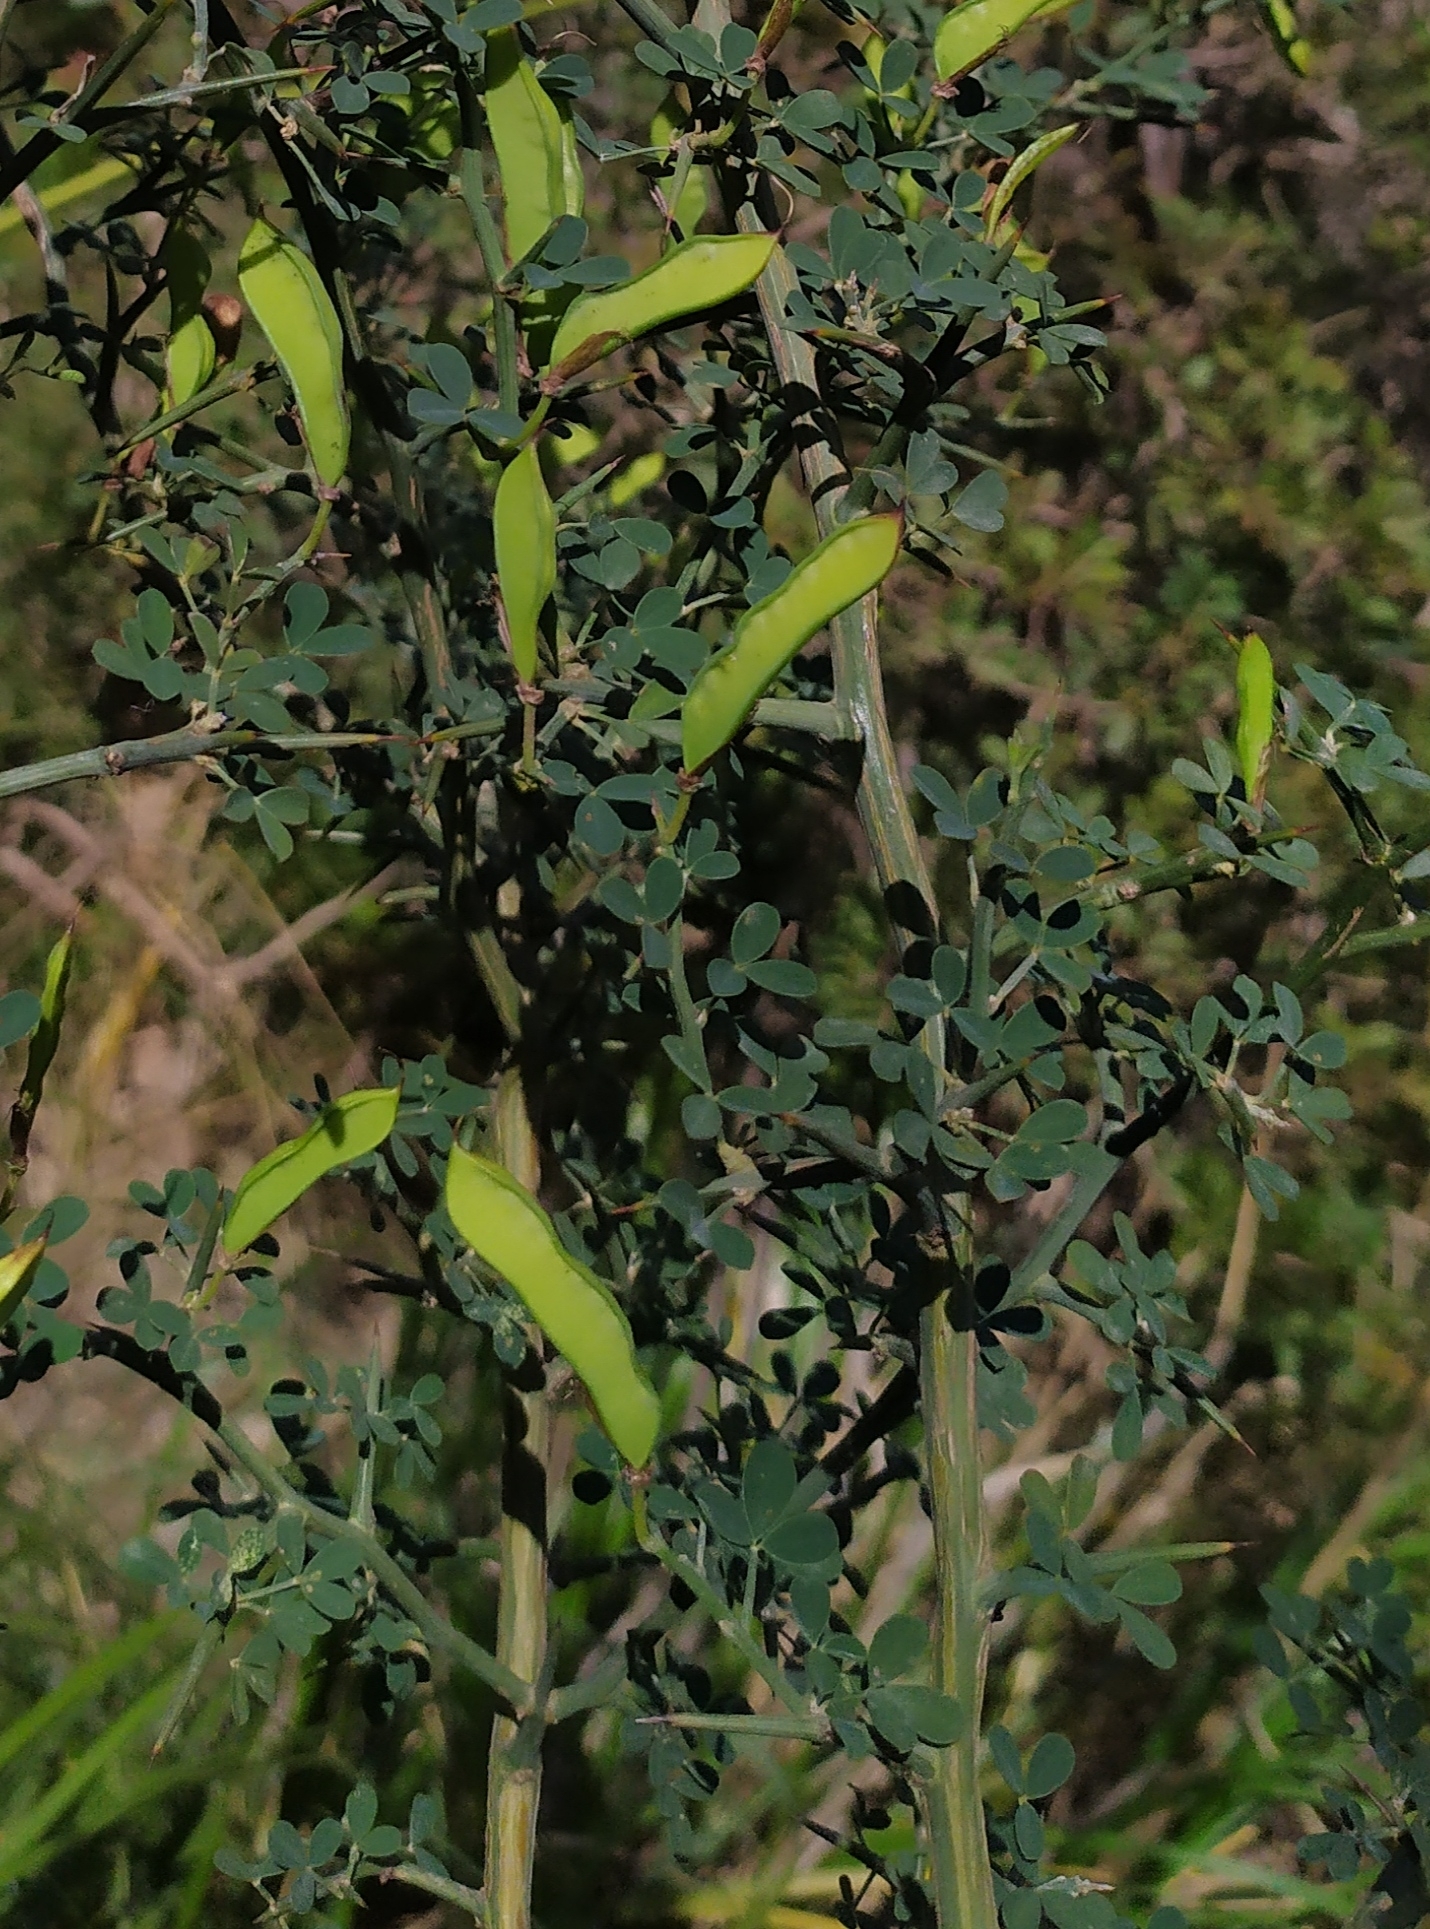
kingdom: Plantae
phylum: Tracheophyta
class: Magnoliopsida
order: Fabales
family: Fabaceae
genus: Calicotome
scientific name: Calicotome spinosa
